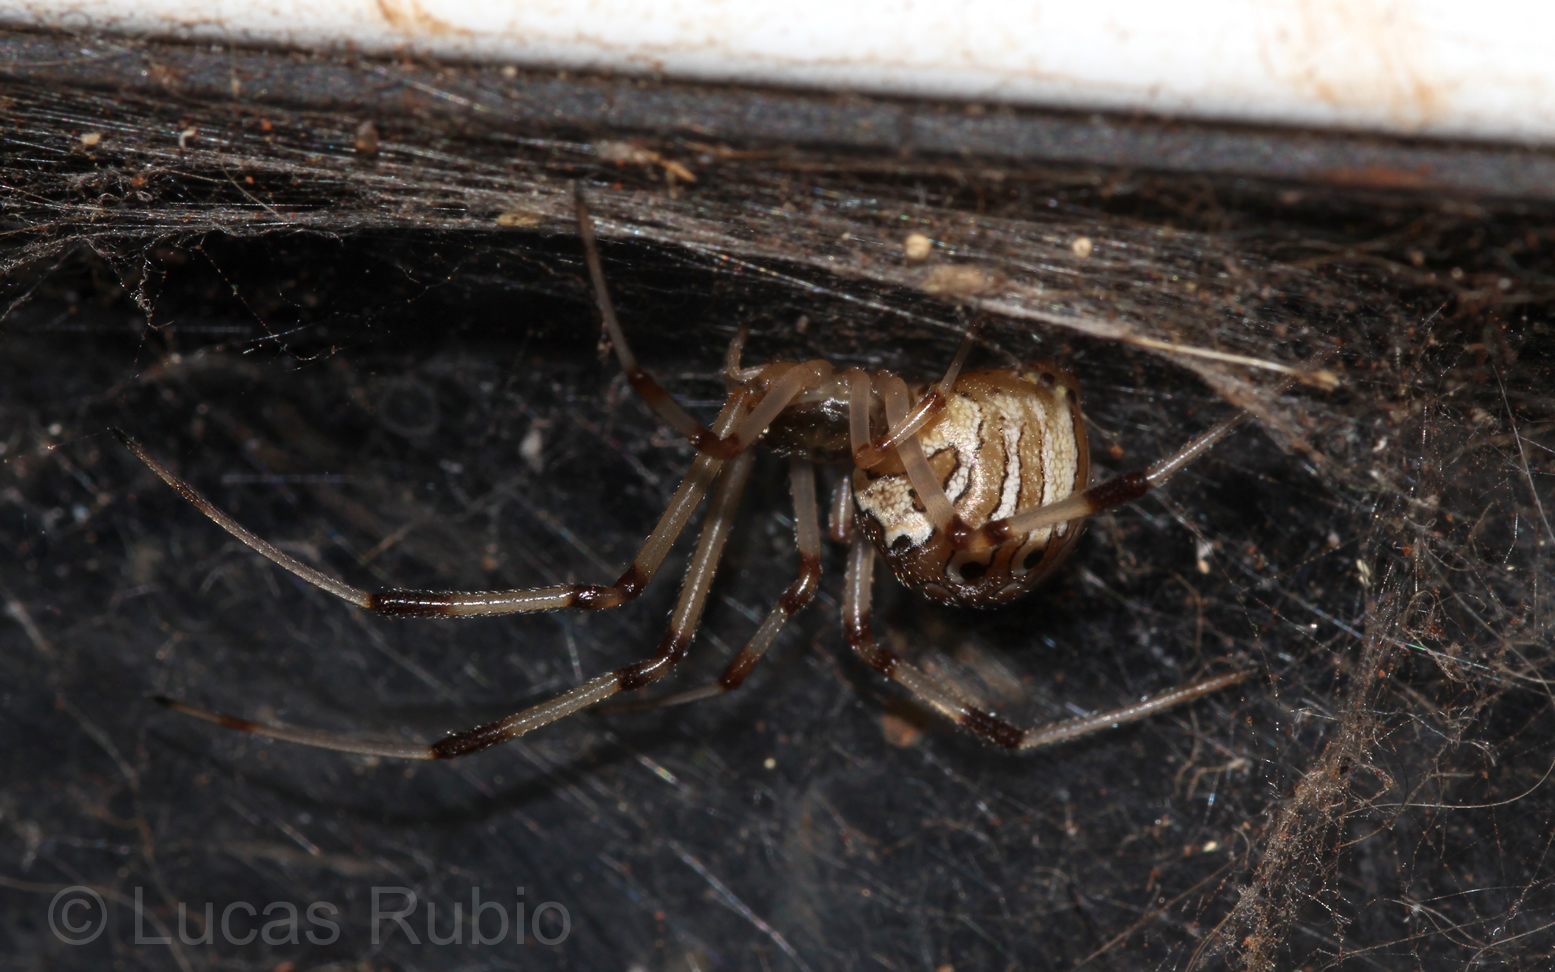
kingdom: Animalia
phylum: Arthropoda
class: Arachnida
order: Araneae
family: Theridiidae
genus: Latrodectus
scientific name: Latrodectus geometricus
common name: Brown widow spider
